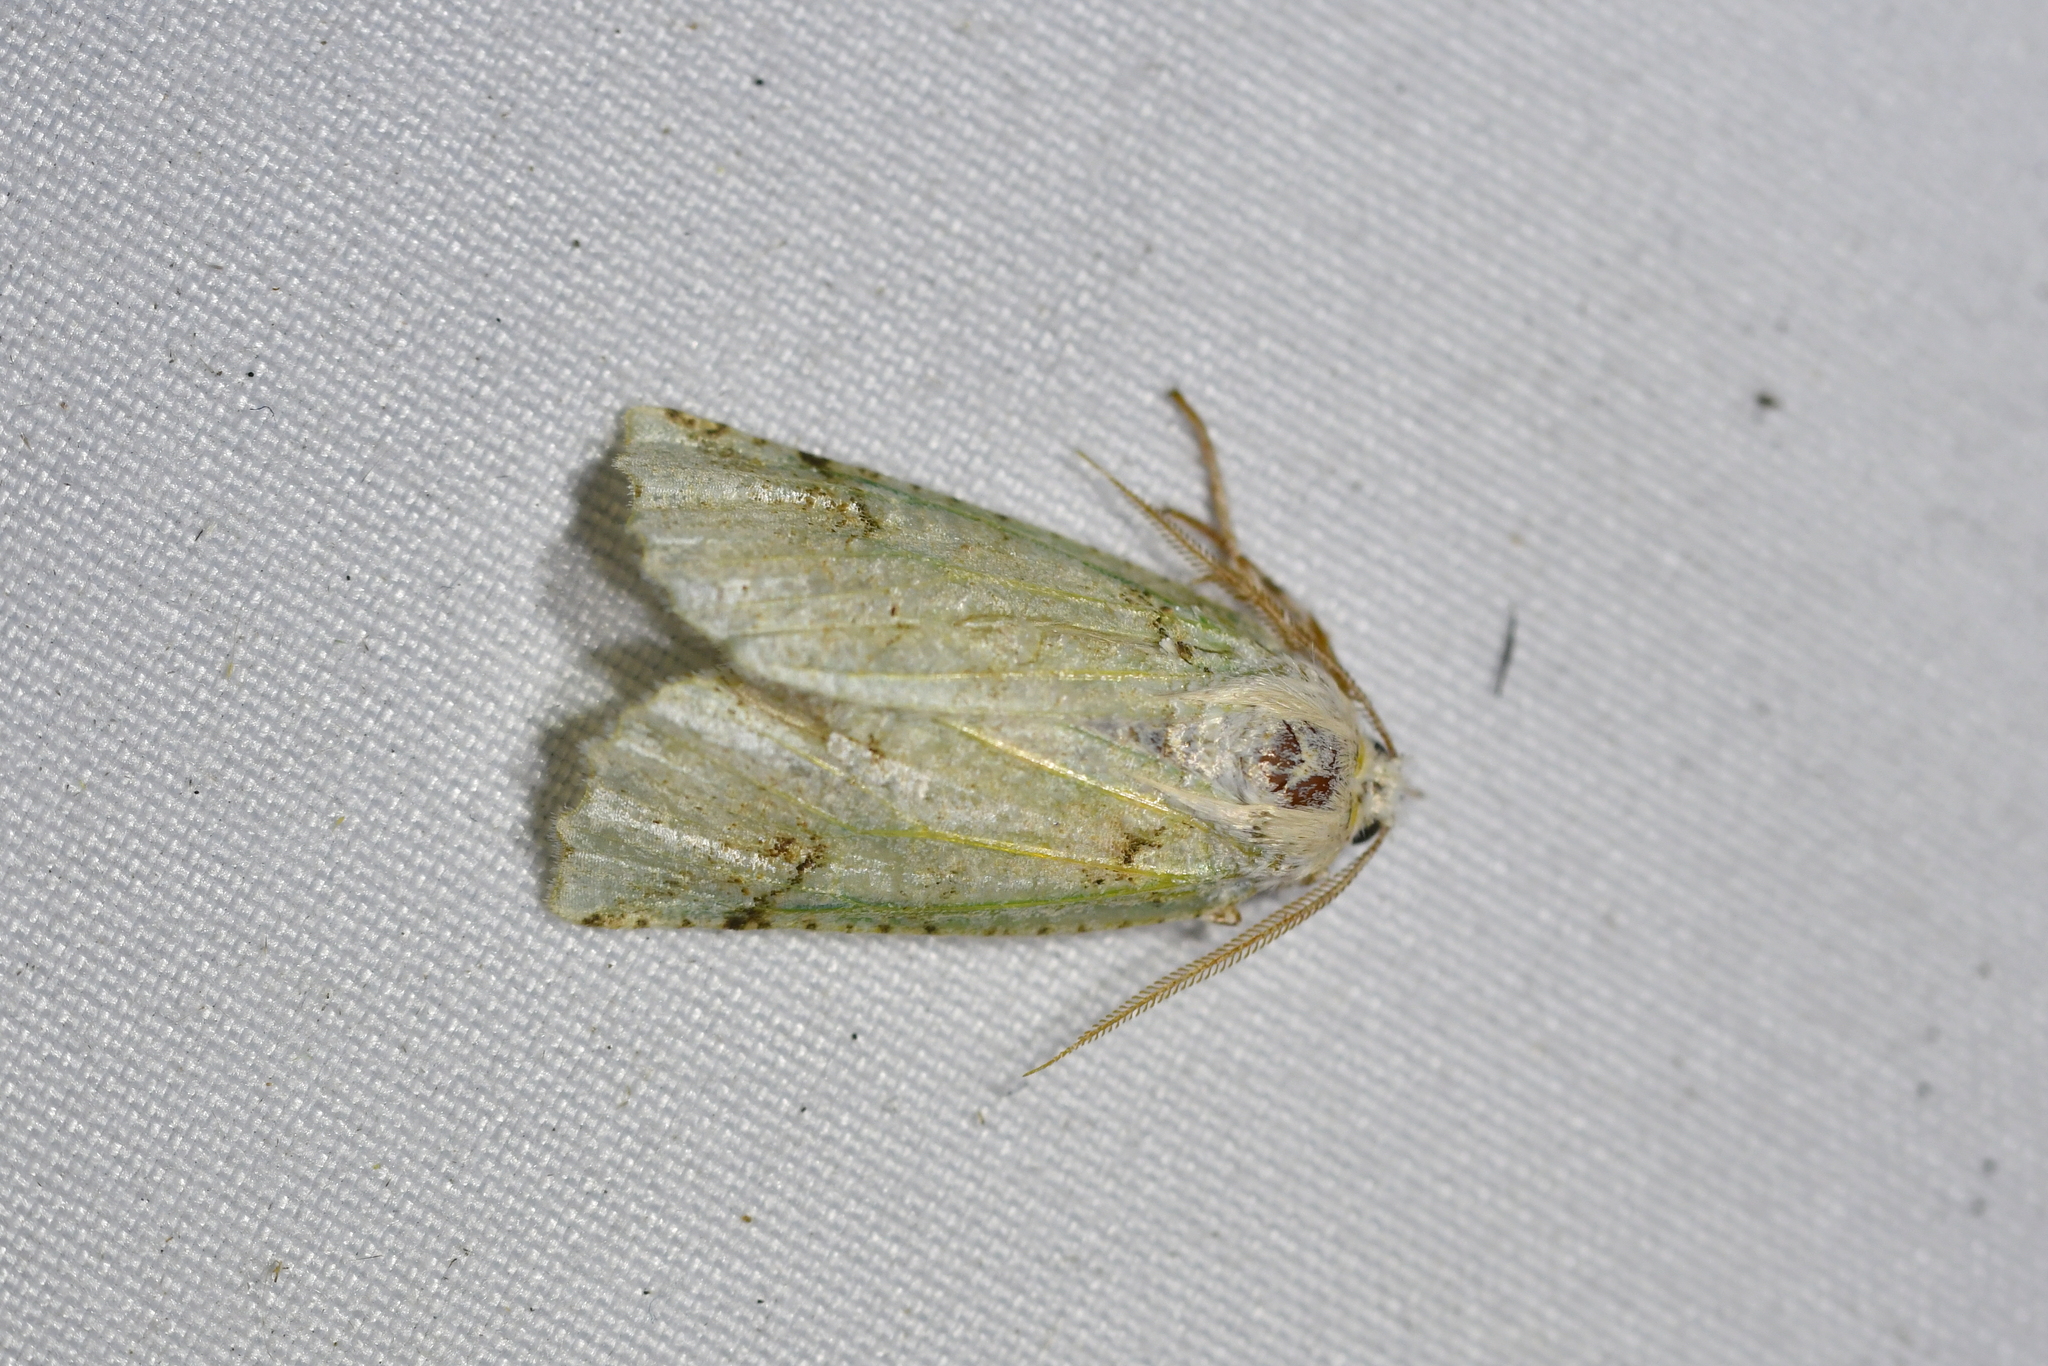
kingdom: Animalia
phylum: Arthropoda
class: Insecta
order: Lepidoptera
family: Geometridae
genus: Declana
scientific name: Declana floccosa
